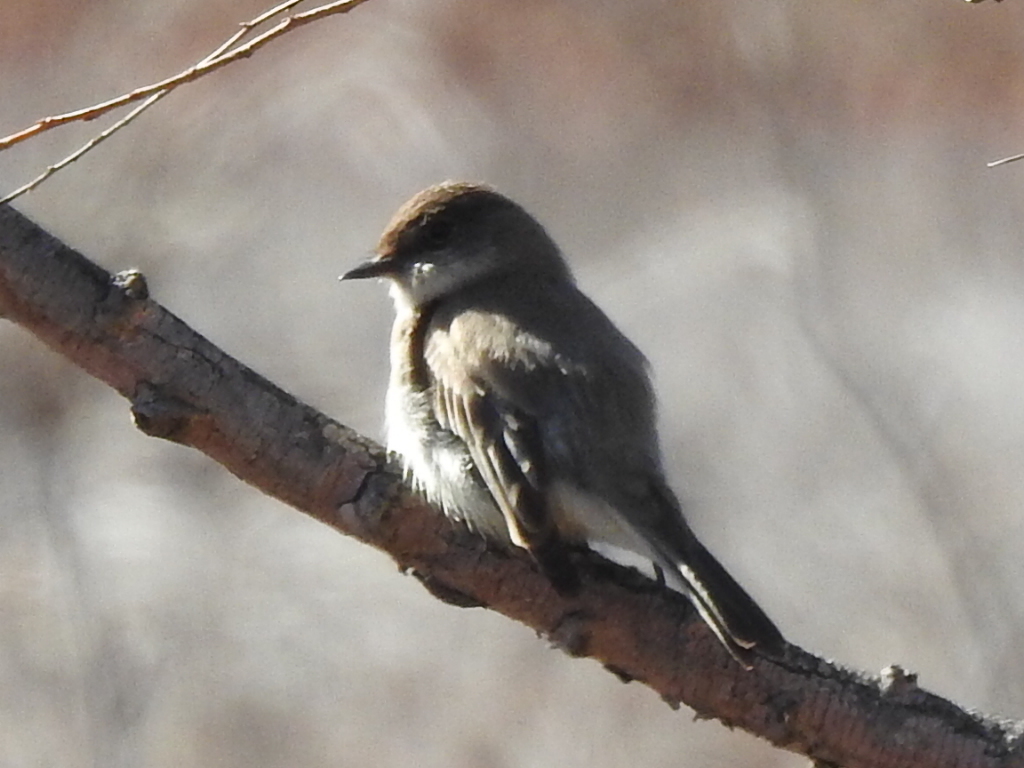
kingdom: Animalia
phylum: Chordata
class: Aves
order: Passeriformes
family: Tyrannidae
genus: Sayornis
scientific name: Sayornis phoebe
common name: Eastern phoebe
